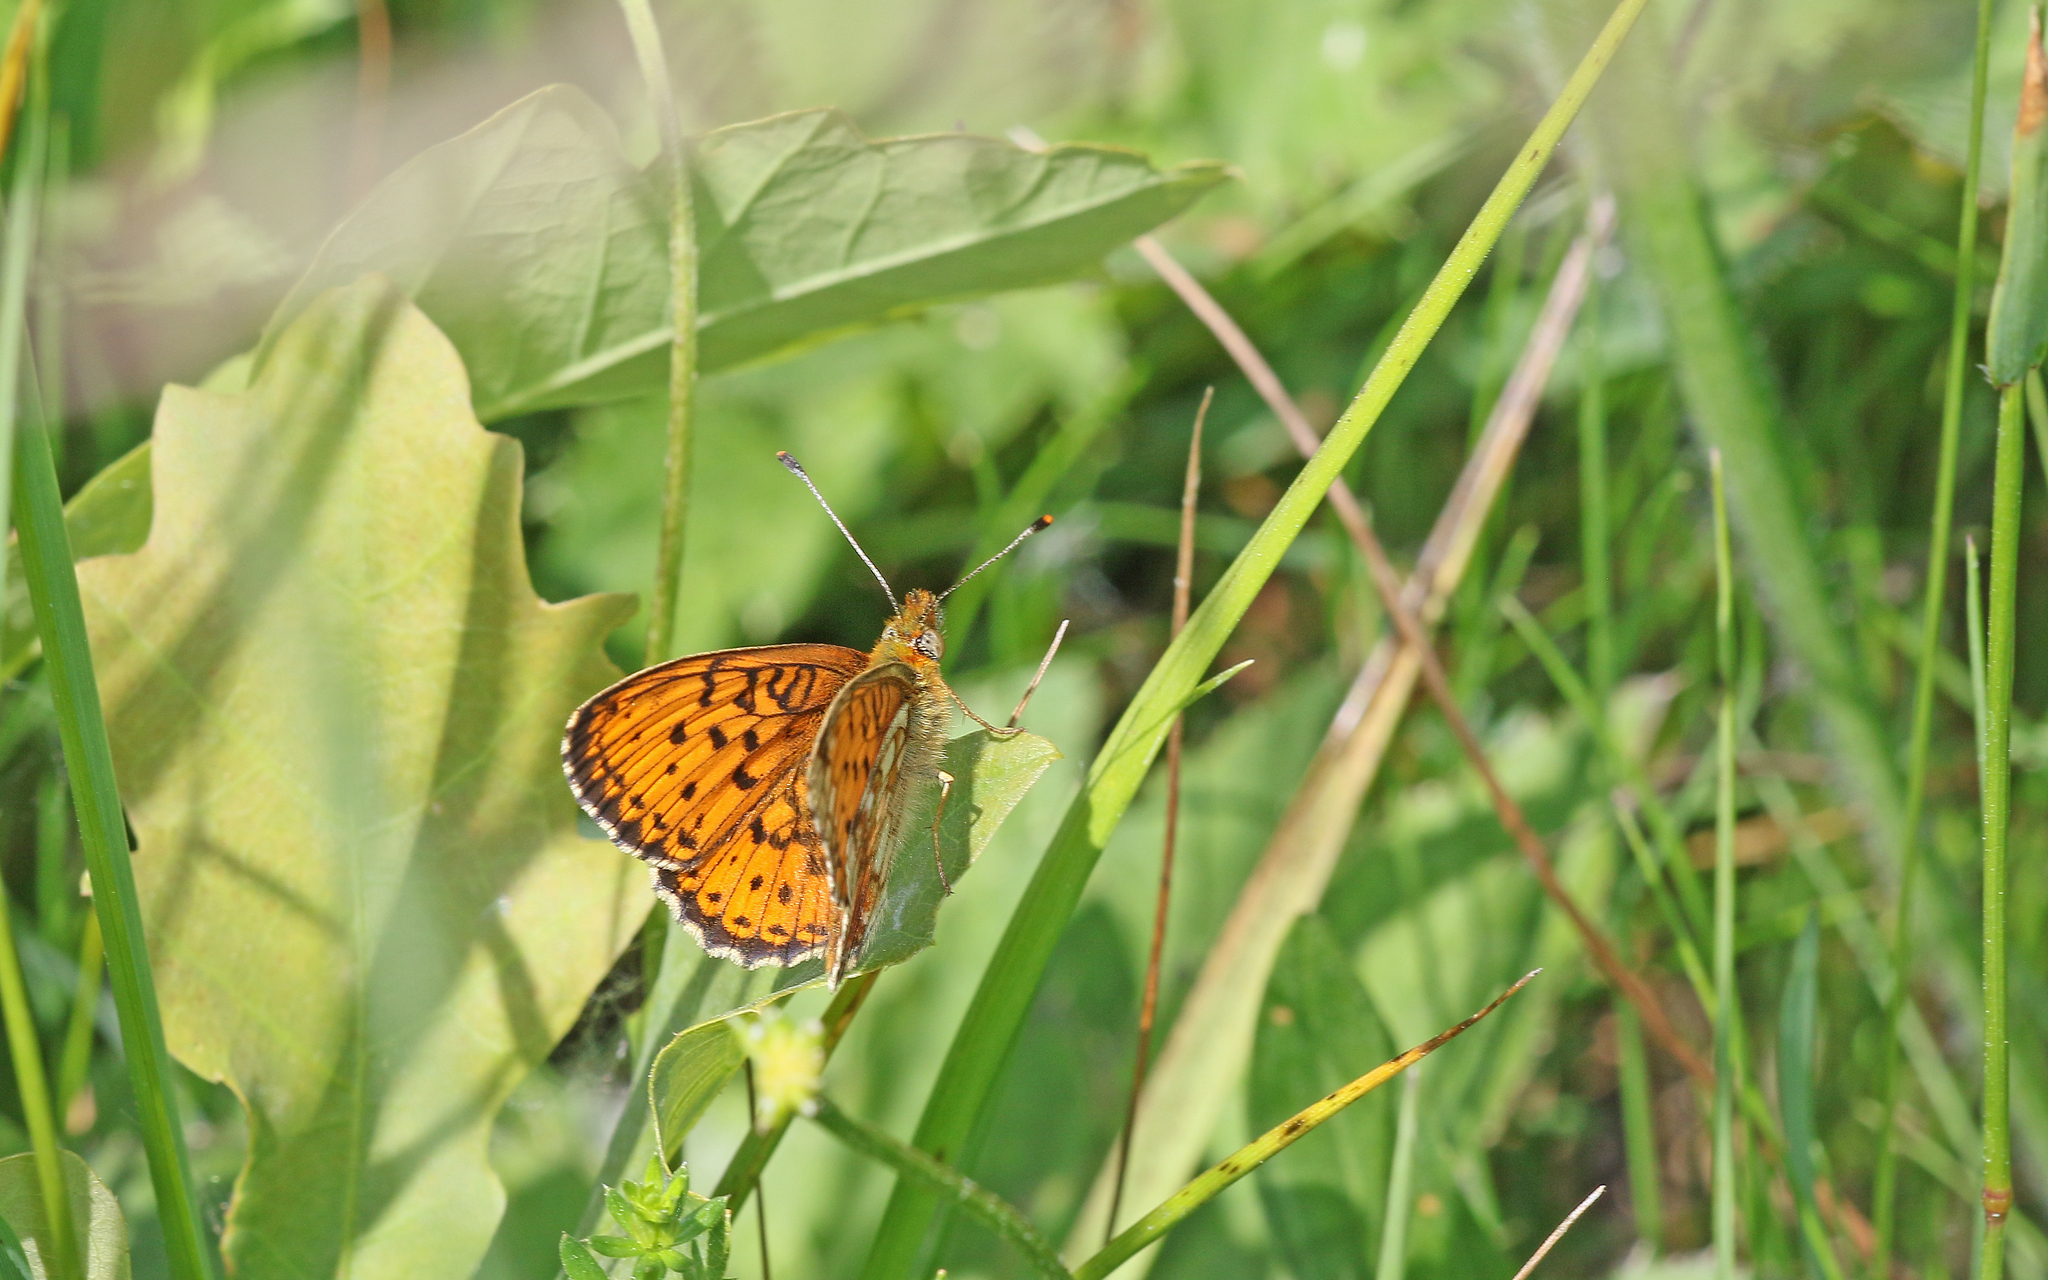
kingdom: Animalia
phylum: Arthropoda
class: Insecta
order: Lepidoptera
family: Nymphalidae
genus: Brenthis
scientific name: Brenthis ino
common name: Lesser marbled fritillary
